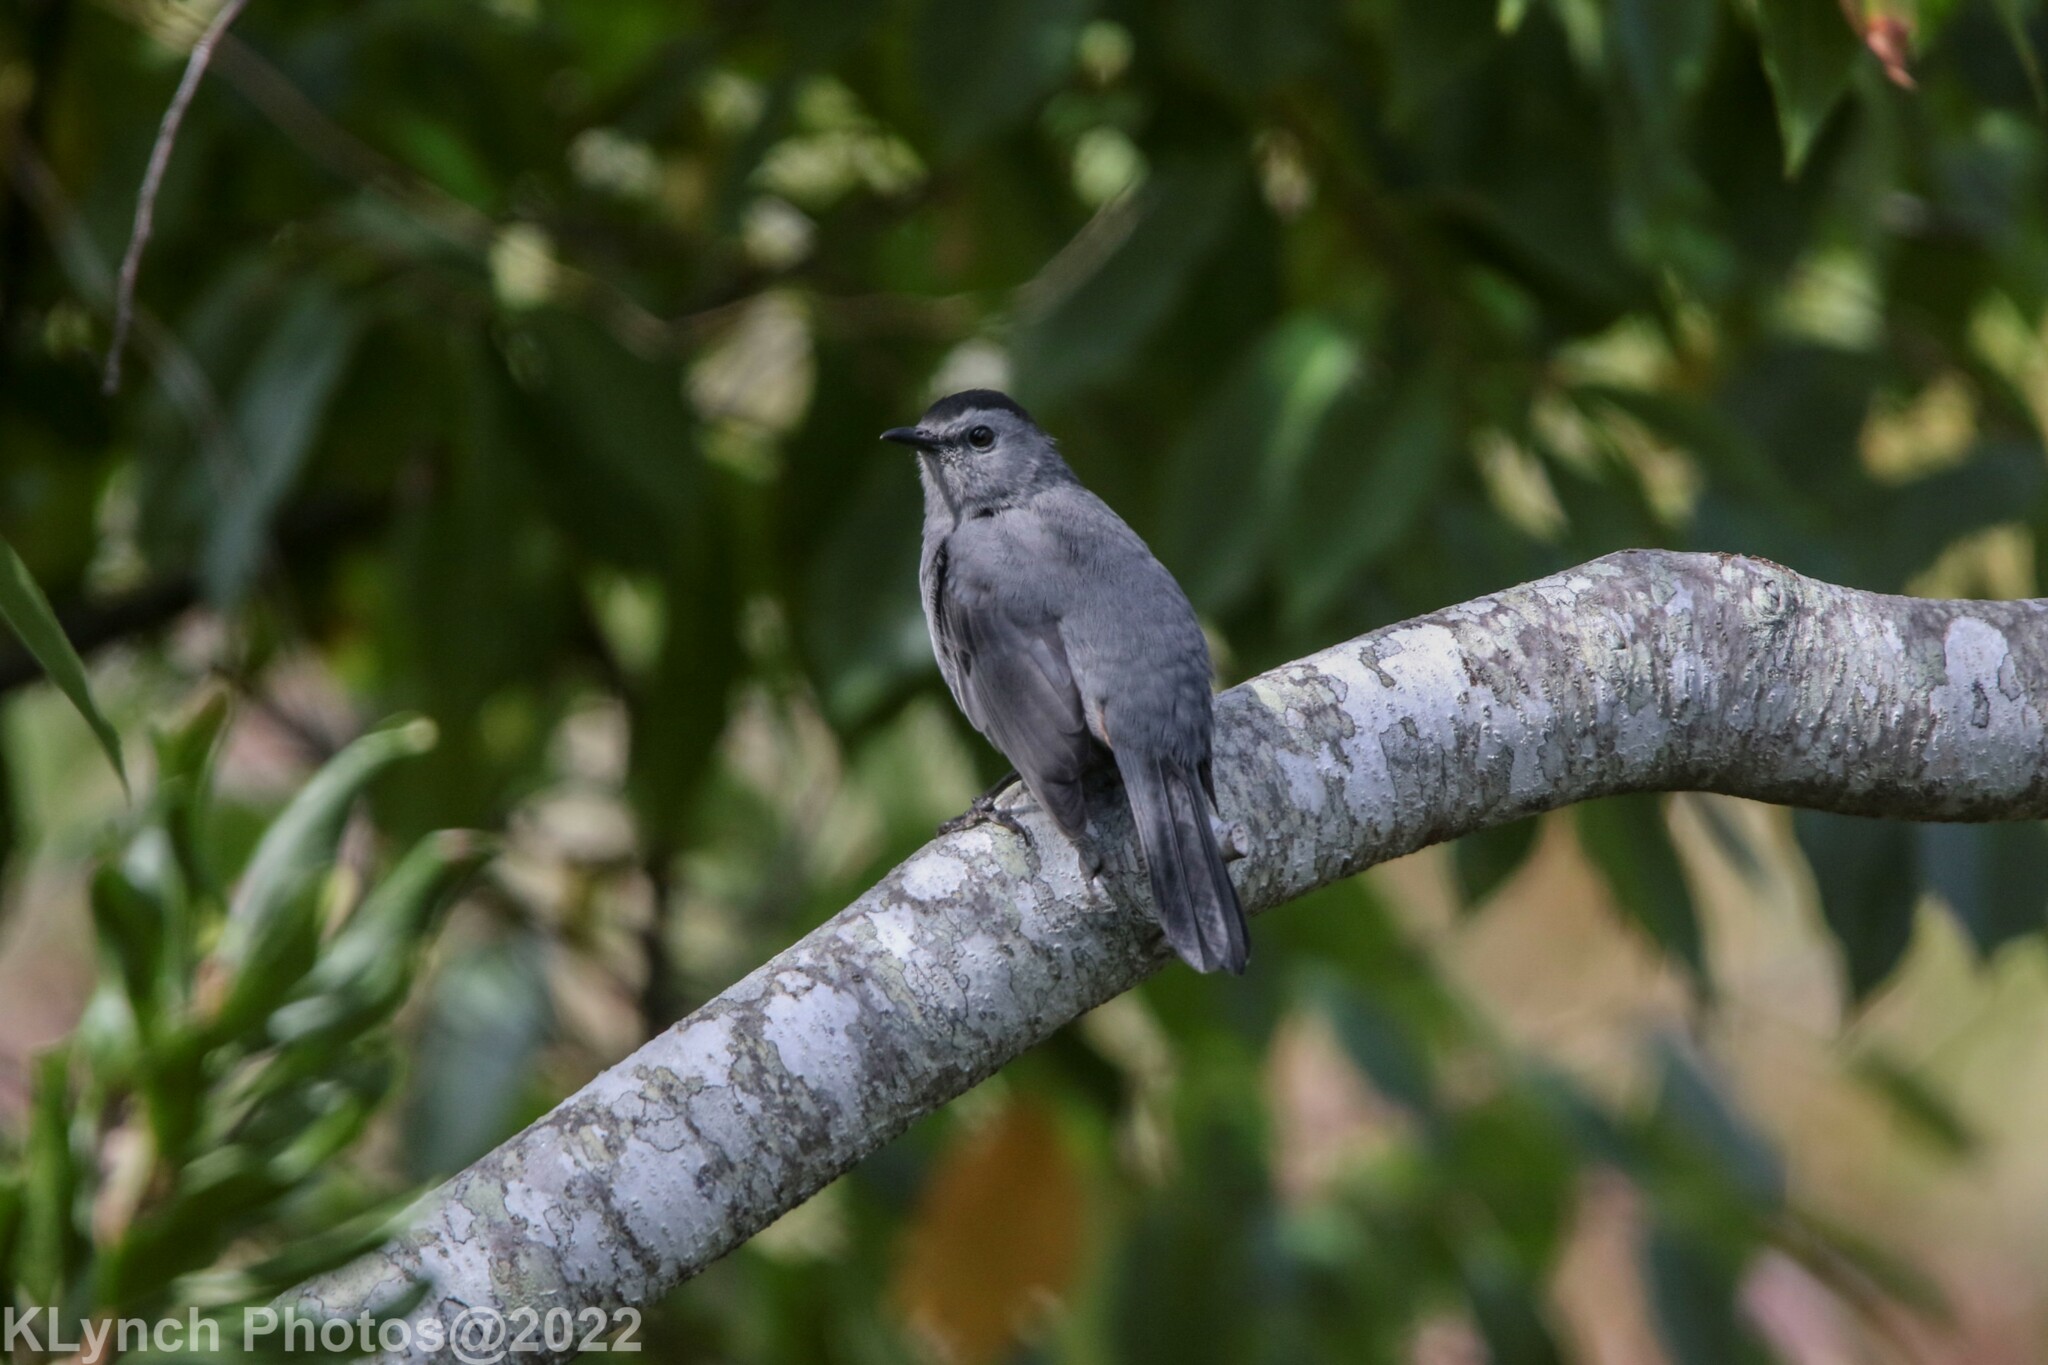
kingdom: Animalia
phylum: Chordata
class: Aves
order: Passeriformes
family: Mimidae
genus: Dumetella
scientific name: Dumetella carolinensis
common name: Gray catbird
